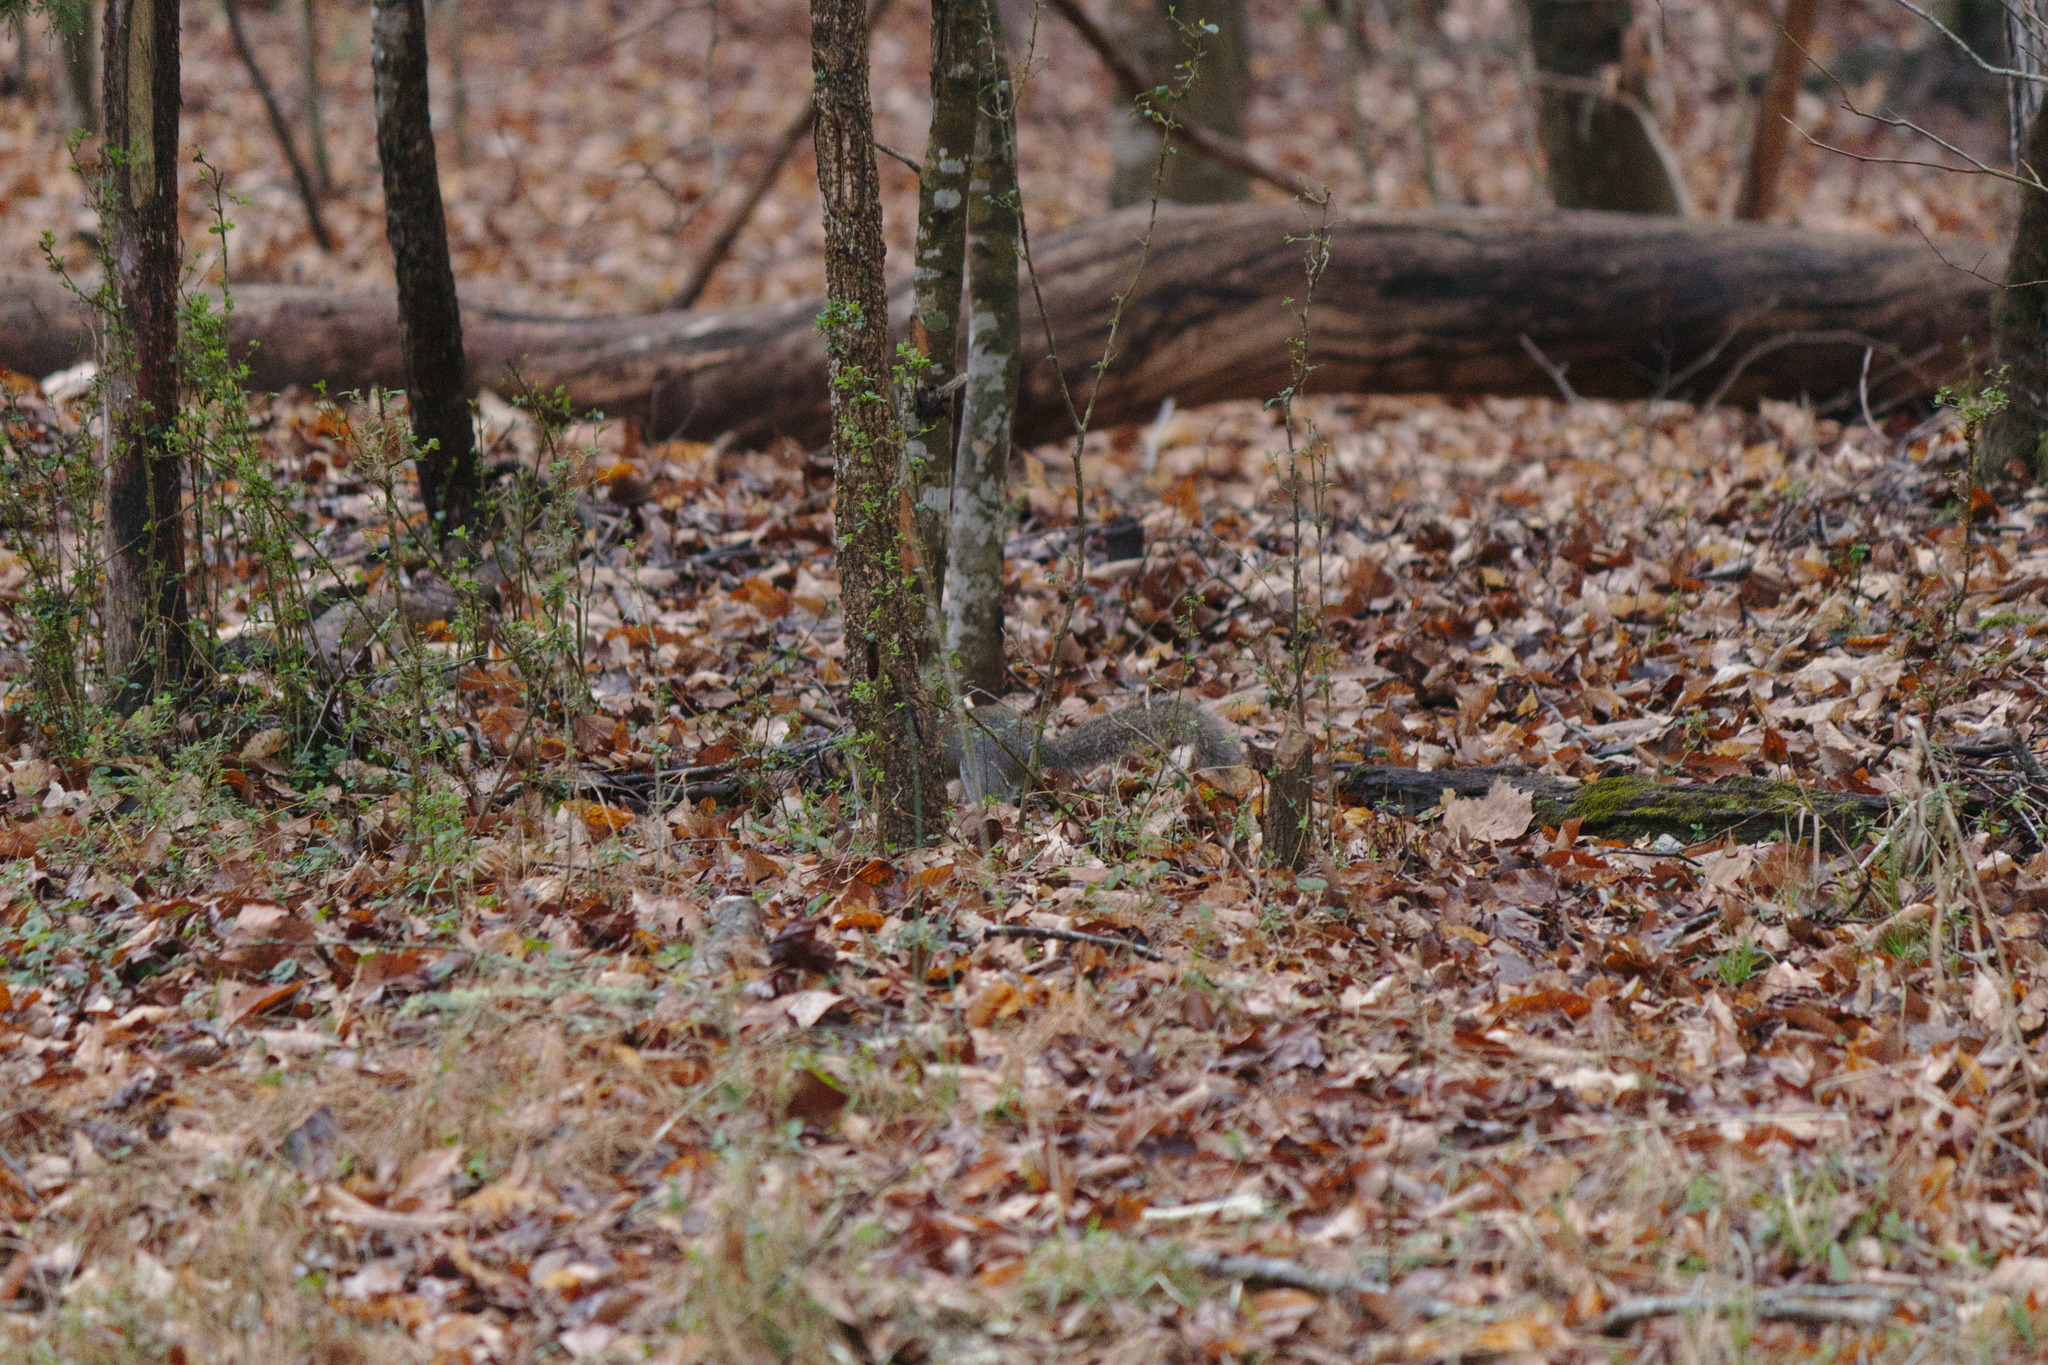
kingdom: Animalia
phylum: Chordata
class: Mammalia
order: Rodentia
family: Sciuridae
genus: Sciurus
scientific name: Sciurus carolinensis
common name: Eastern gray squirrel
